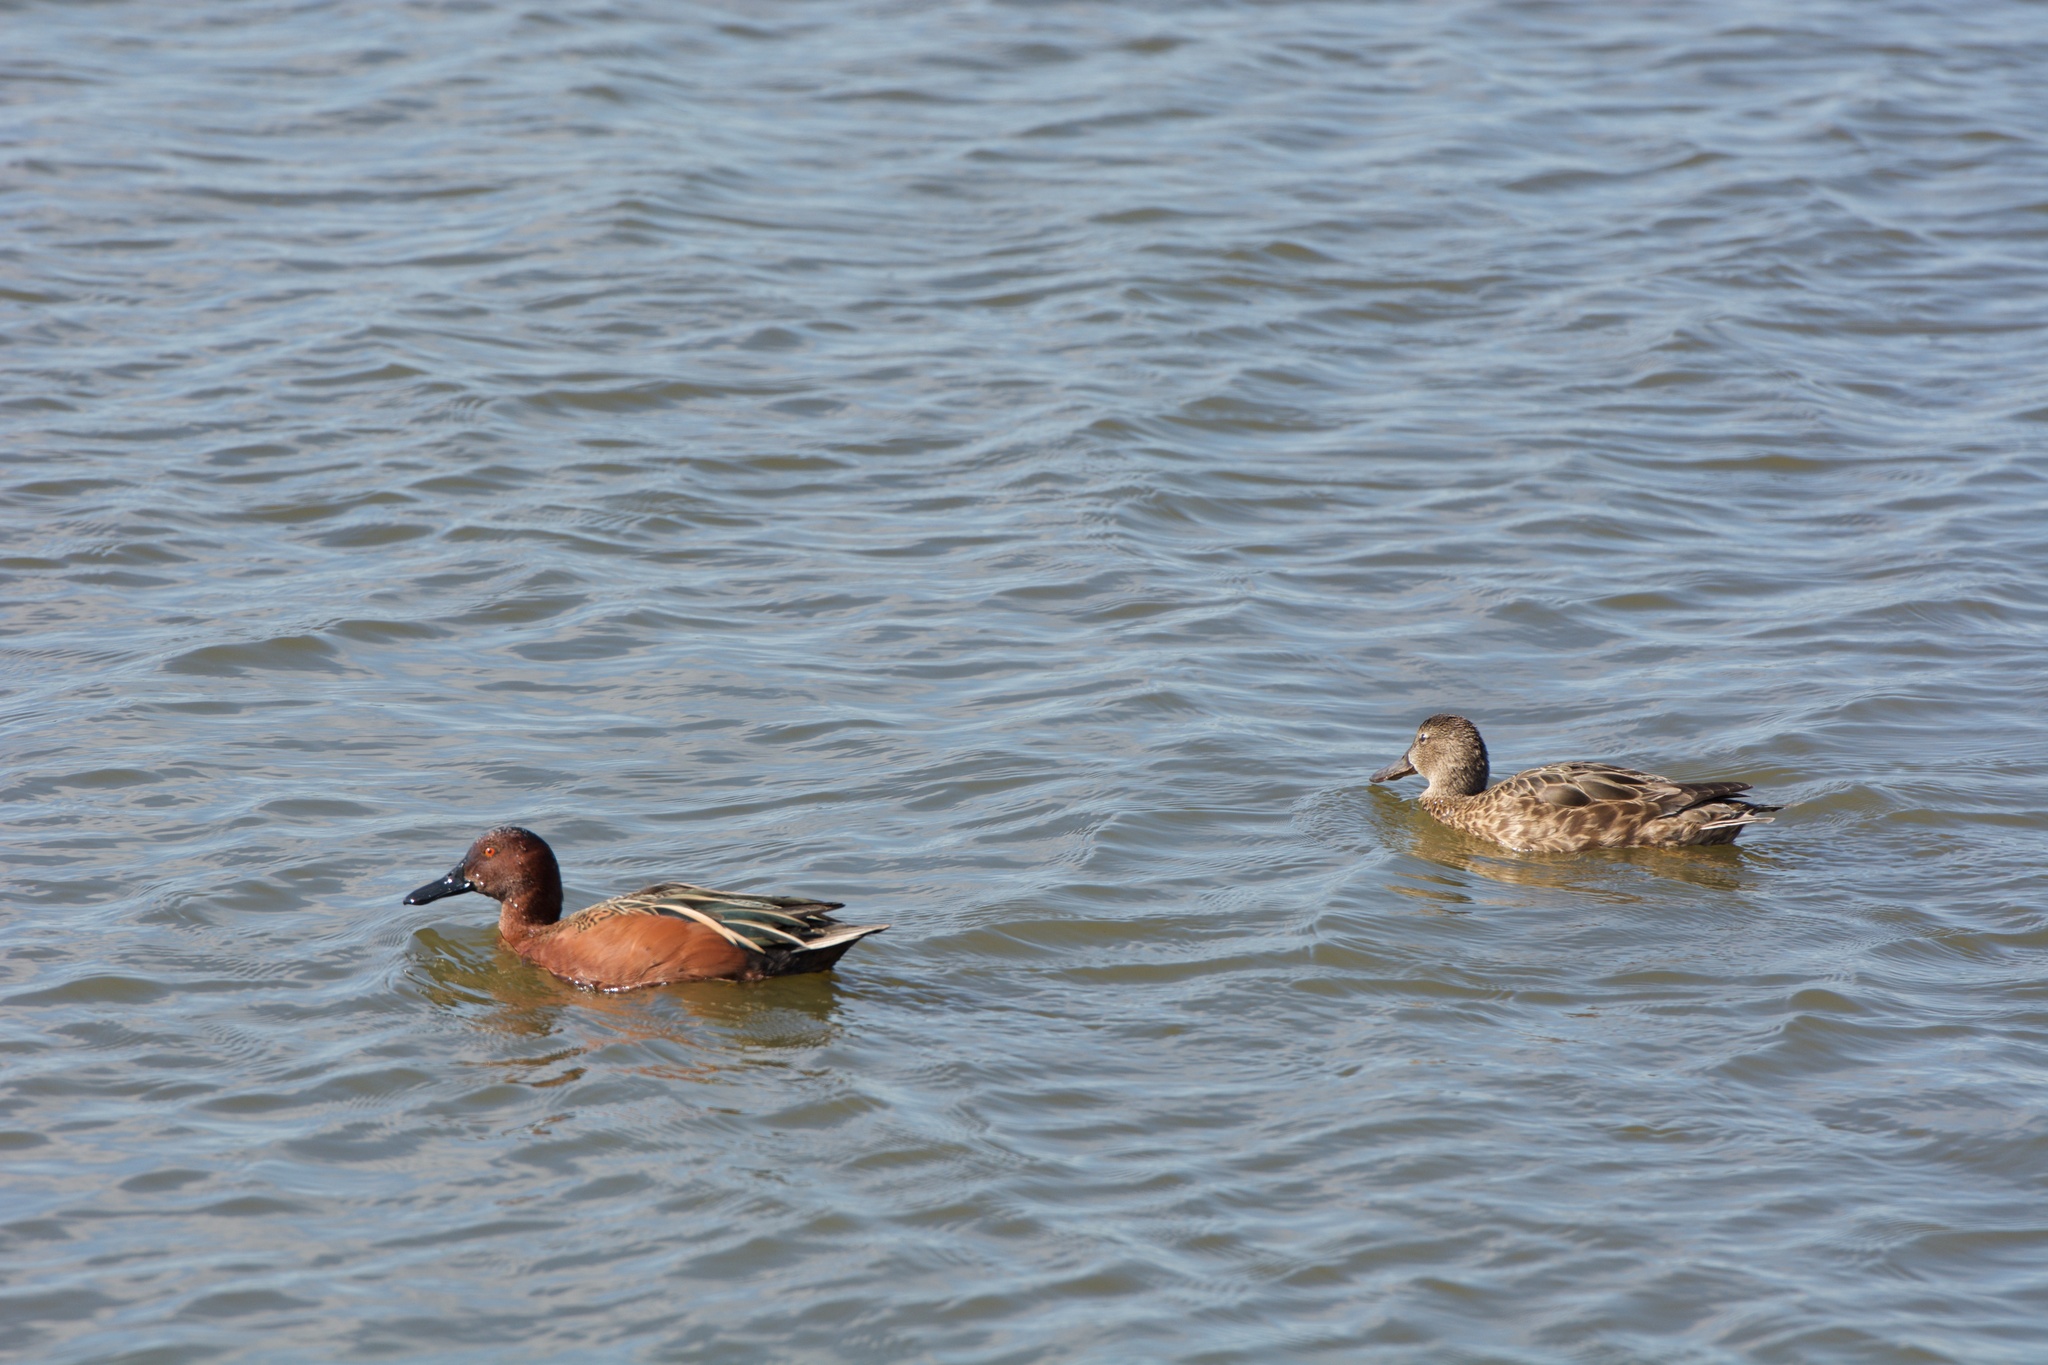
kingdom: Animalia
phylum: Chordata
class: Aves
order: Anseriformes
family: Anatidae
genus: Spatula
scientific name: Spatula cyanoptera
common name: Cinnamon teal
